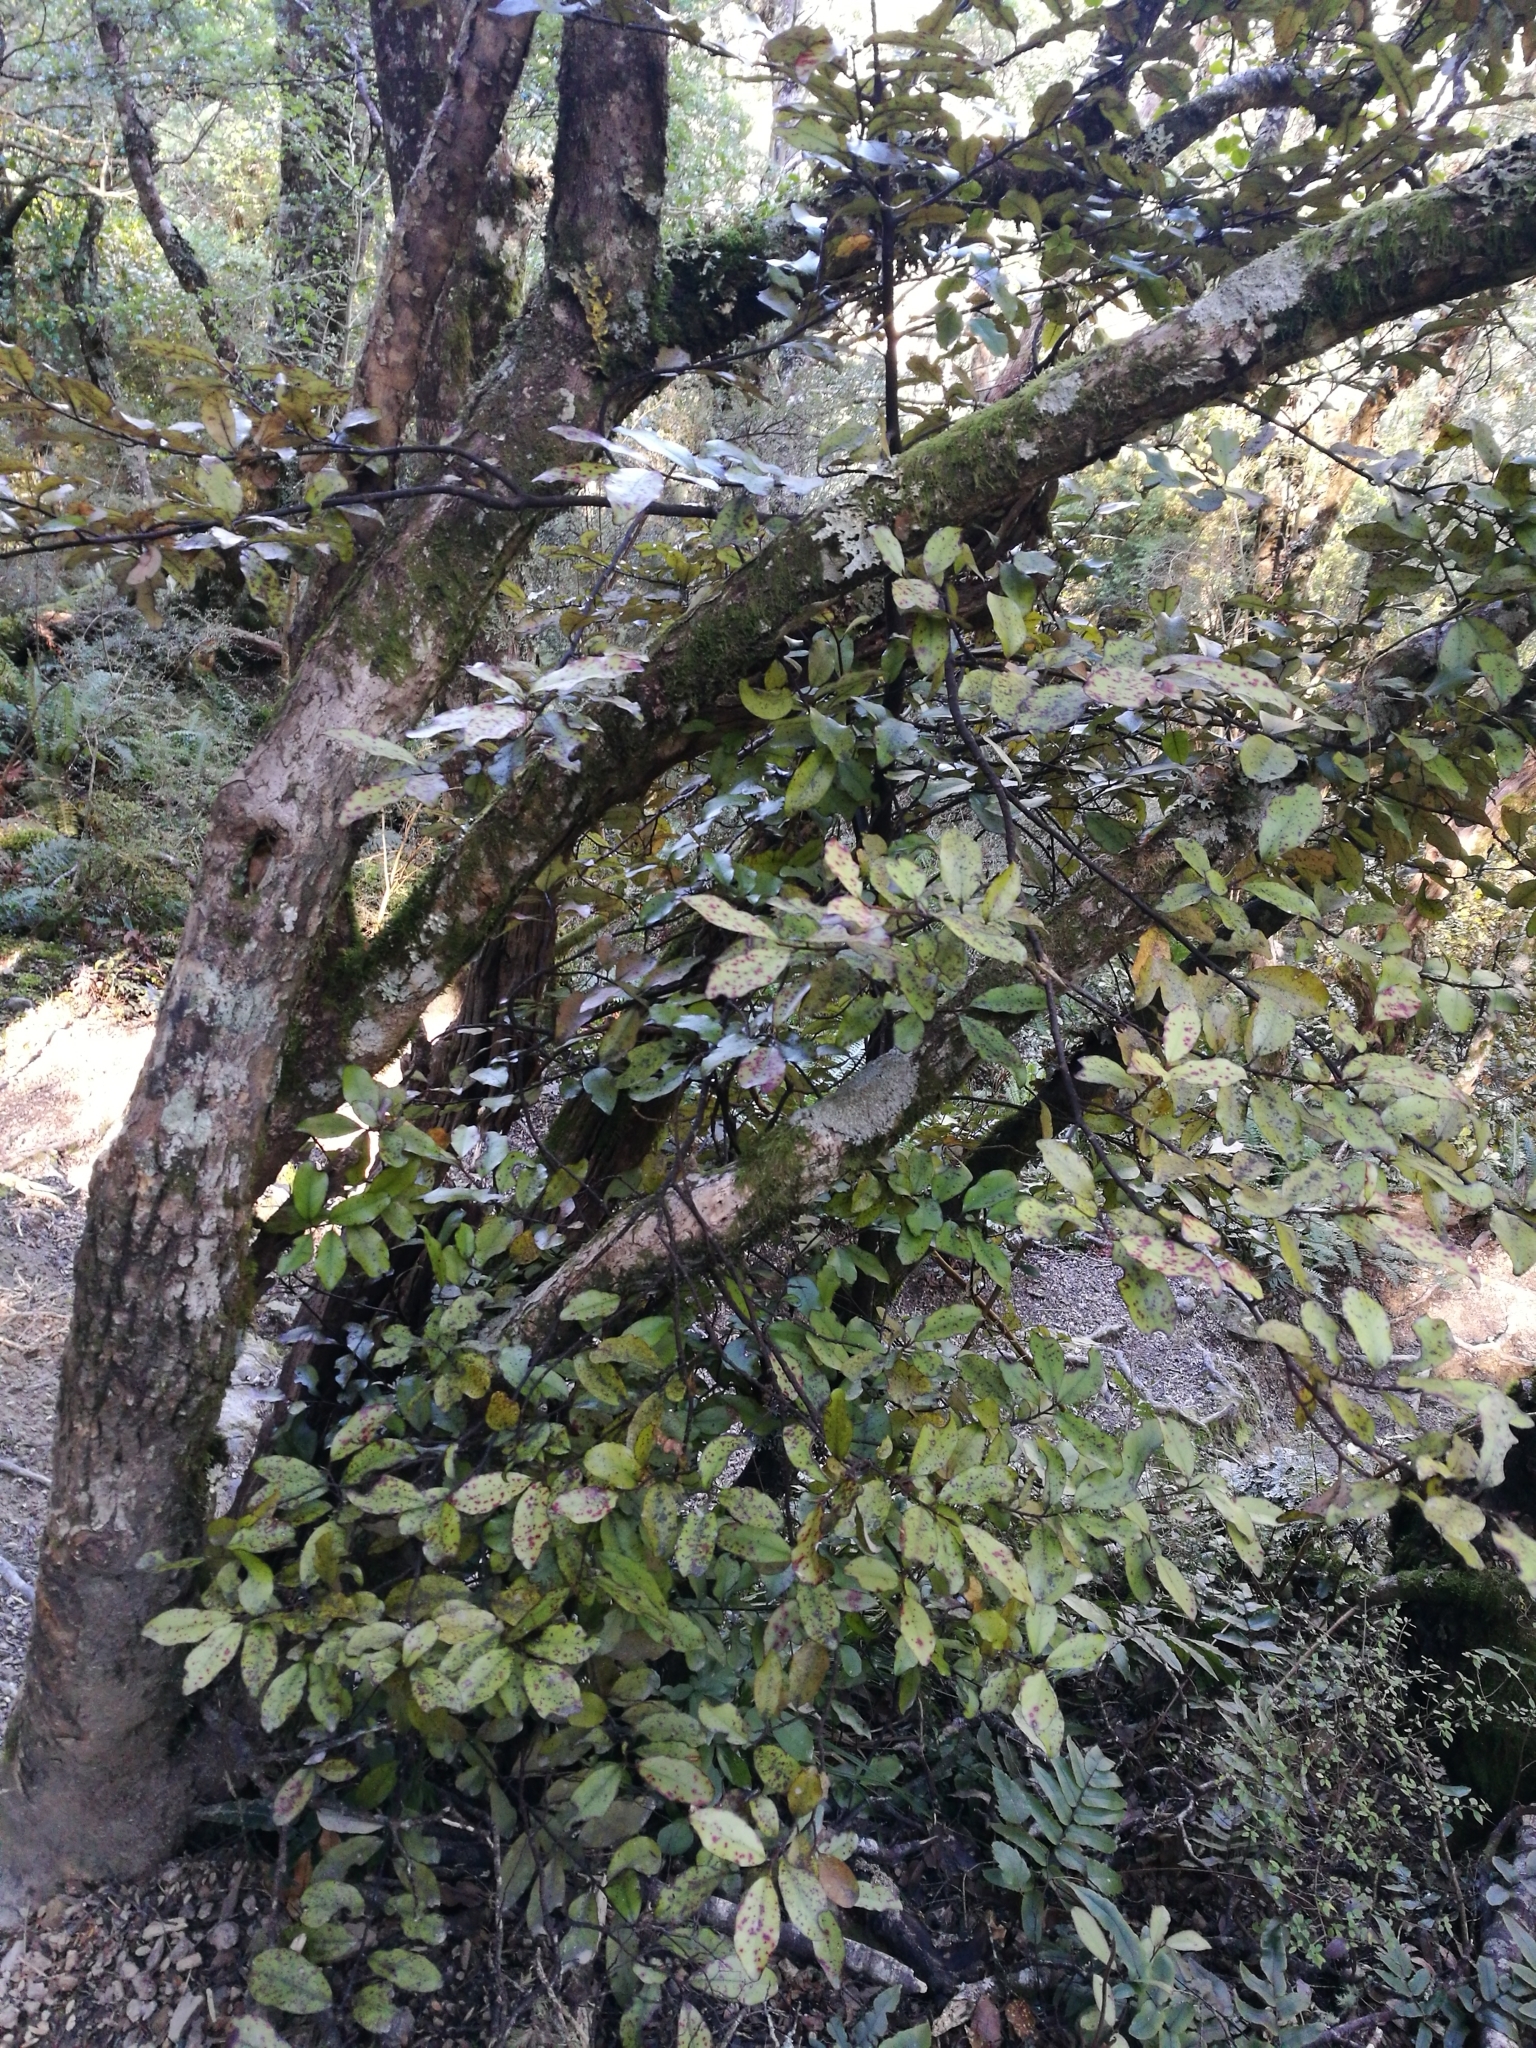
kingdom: Plantae
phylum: Tracheophyta
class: Magnoliopsida
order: Canellales
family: Winteraceae
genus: Pseudowintera
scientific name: Pseudowintera colorata
